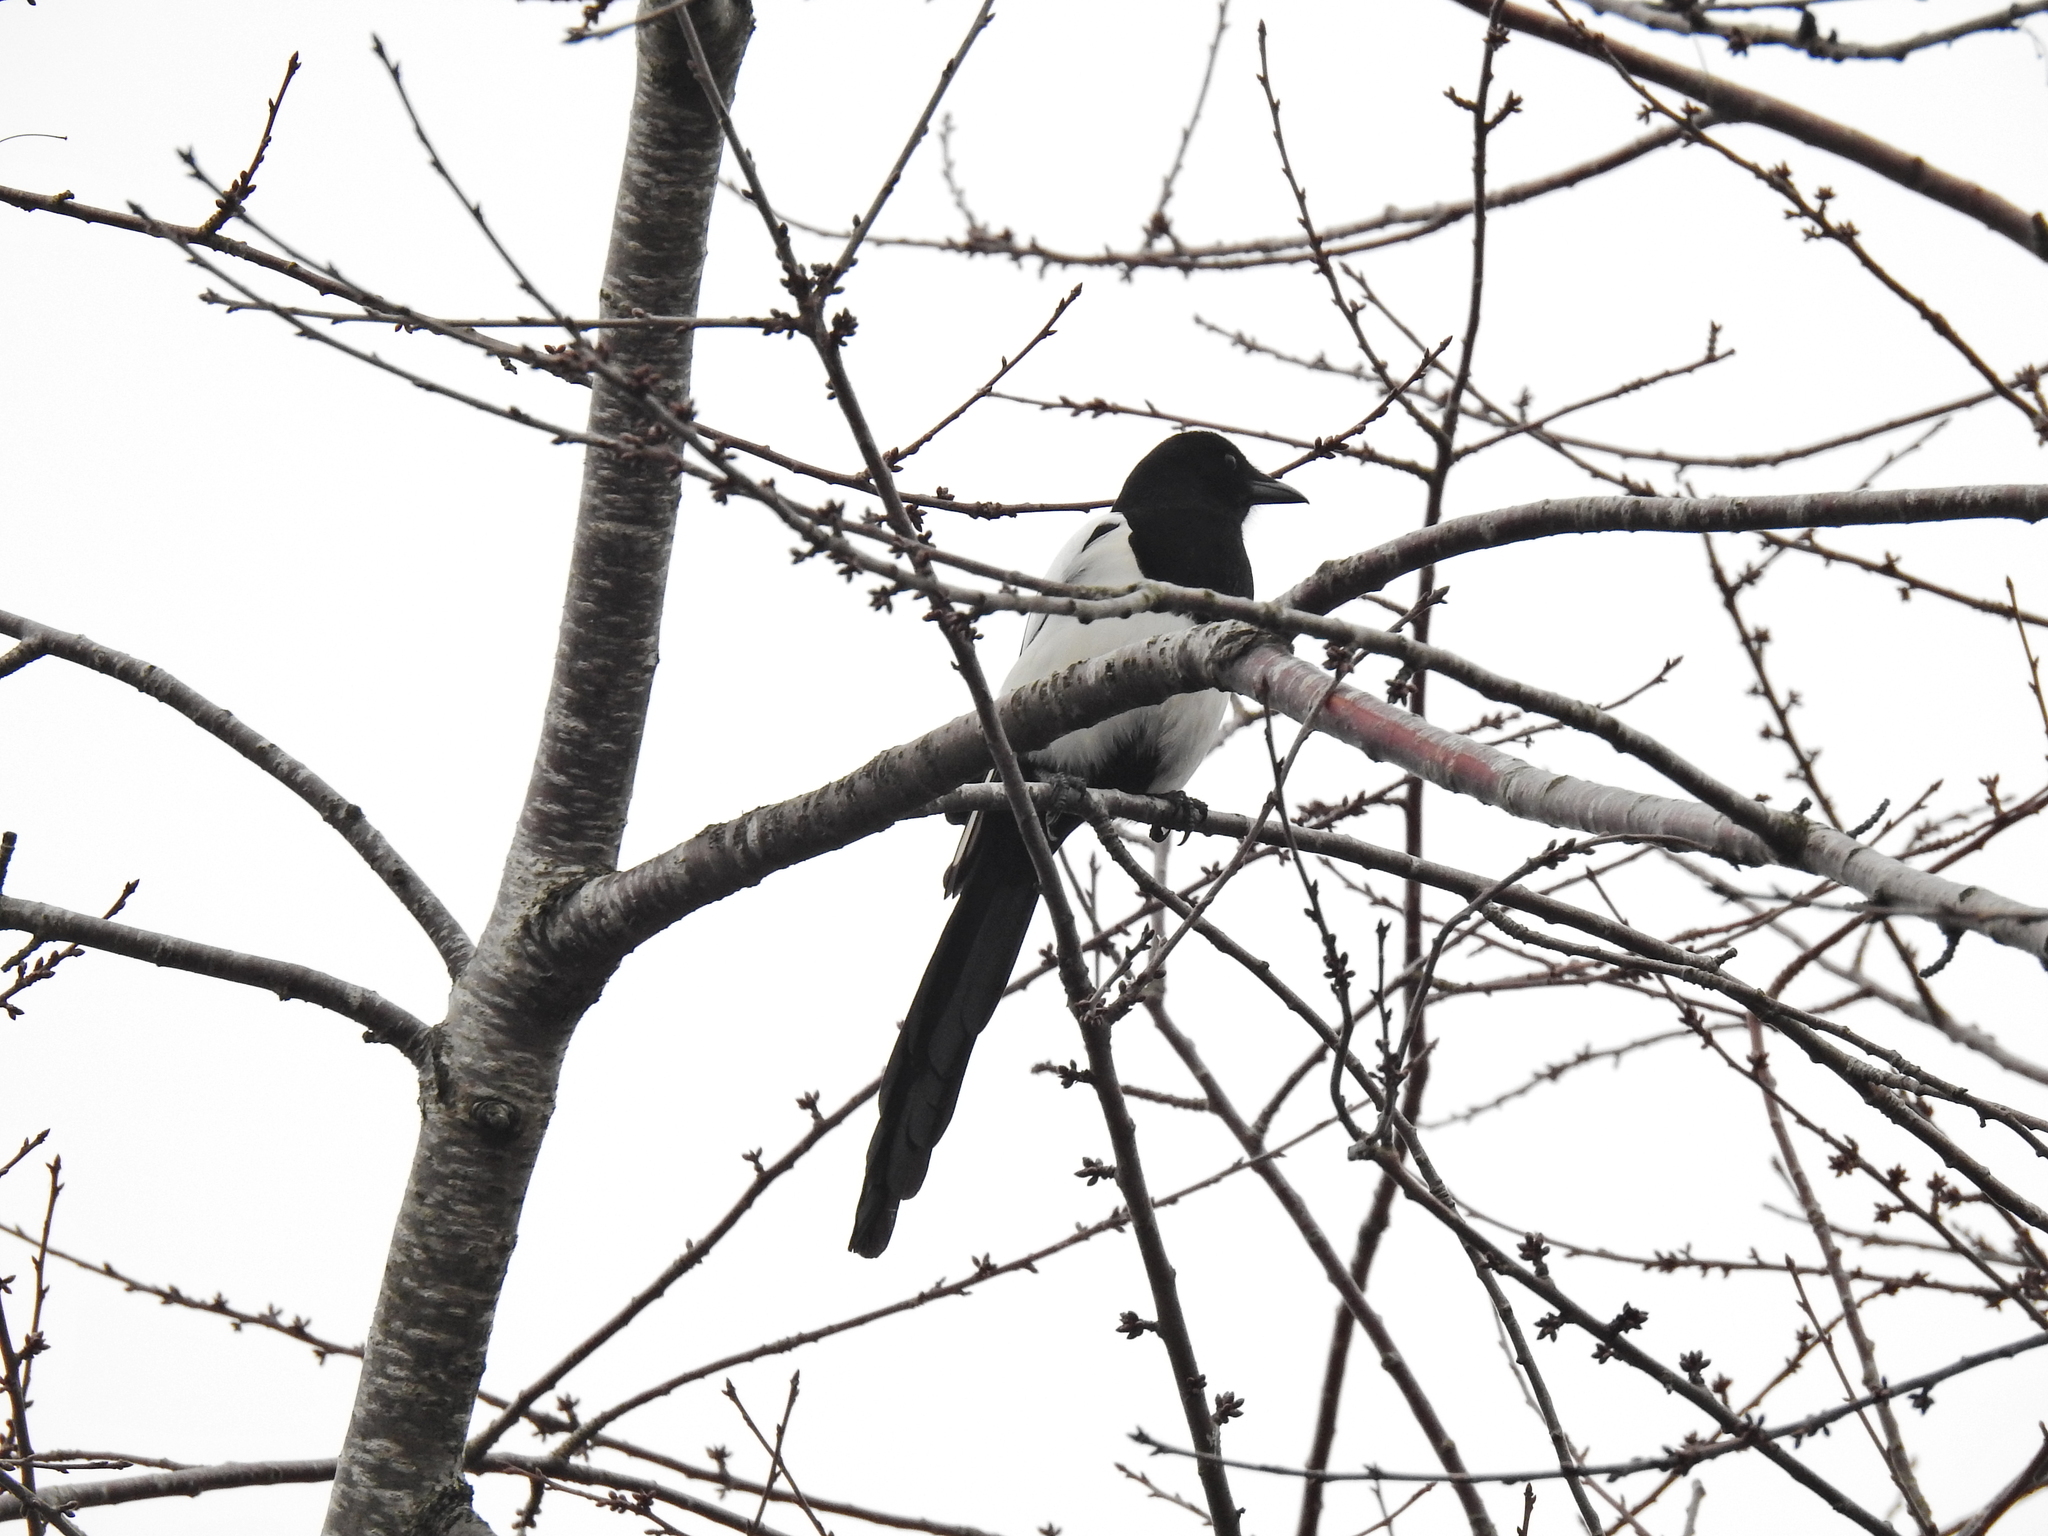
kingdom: Animalia
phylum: Chordata
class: Aves
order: Passeriformes
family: Corvidae
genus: Pica
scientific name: Pica pica
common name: Eurasian magpie
